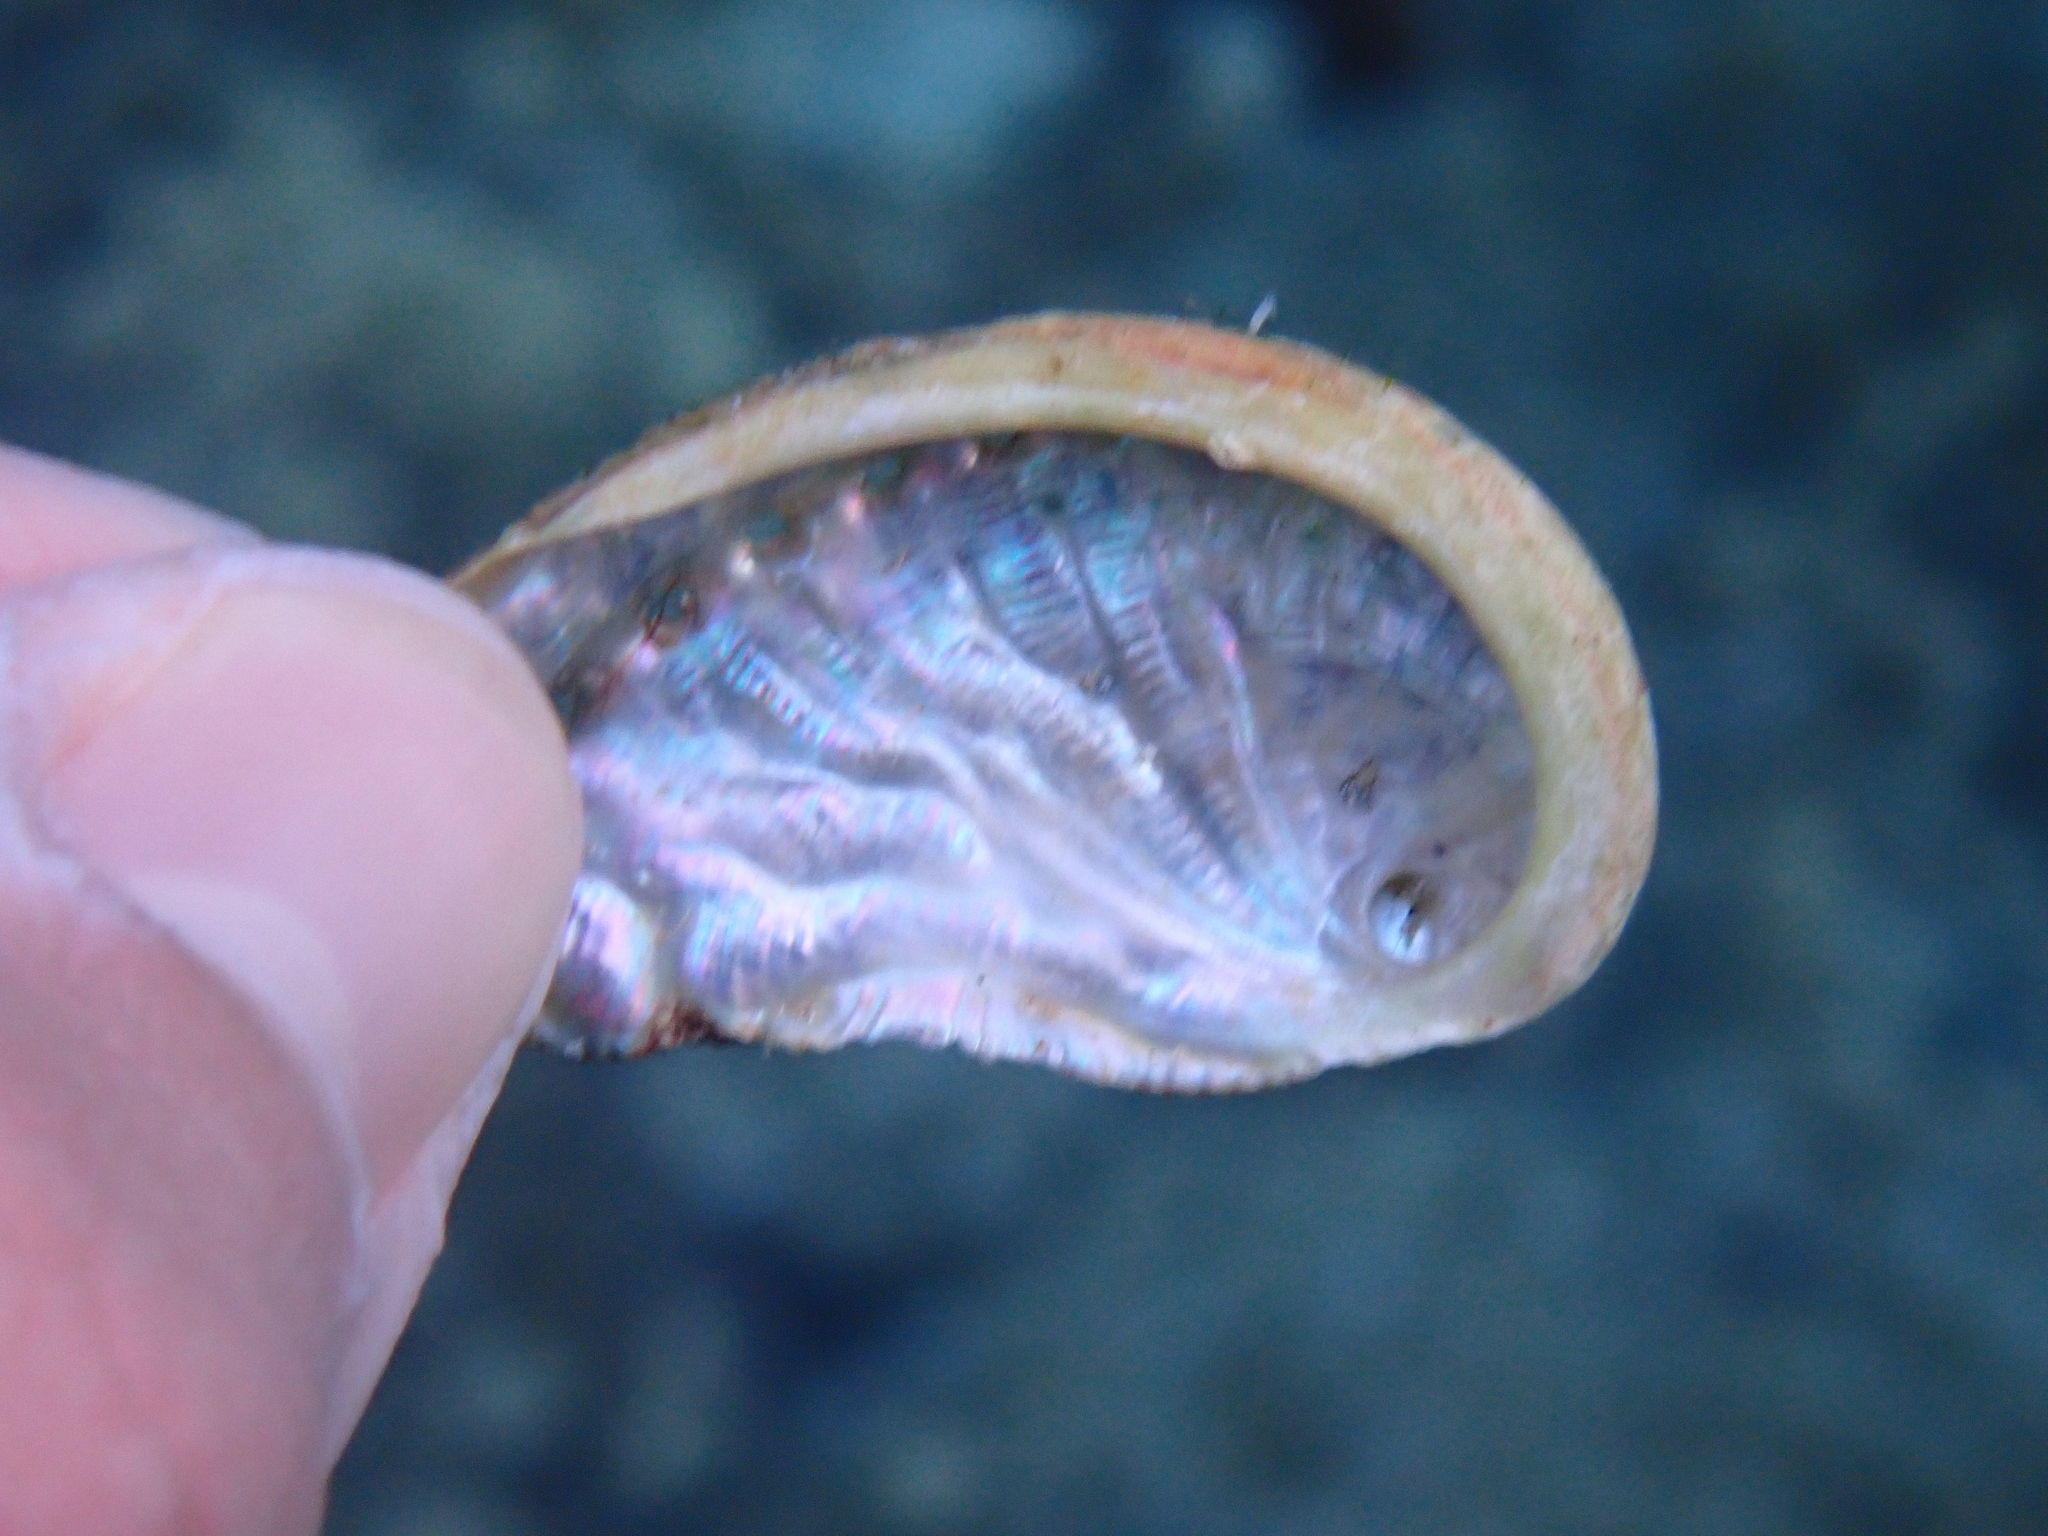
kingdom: Animalia
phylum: Mollusca
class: Gastropoda
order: Lepetellida
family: Haliotidae
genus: Haliotis
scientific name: Haliotis tuberculata
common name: Green ormer
